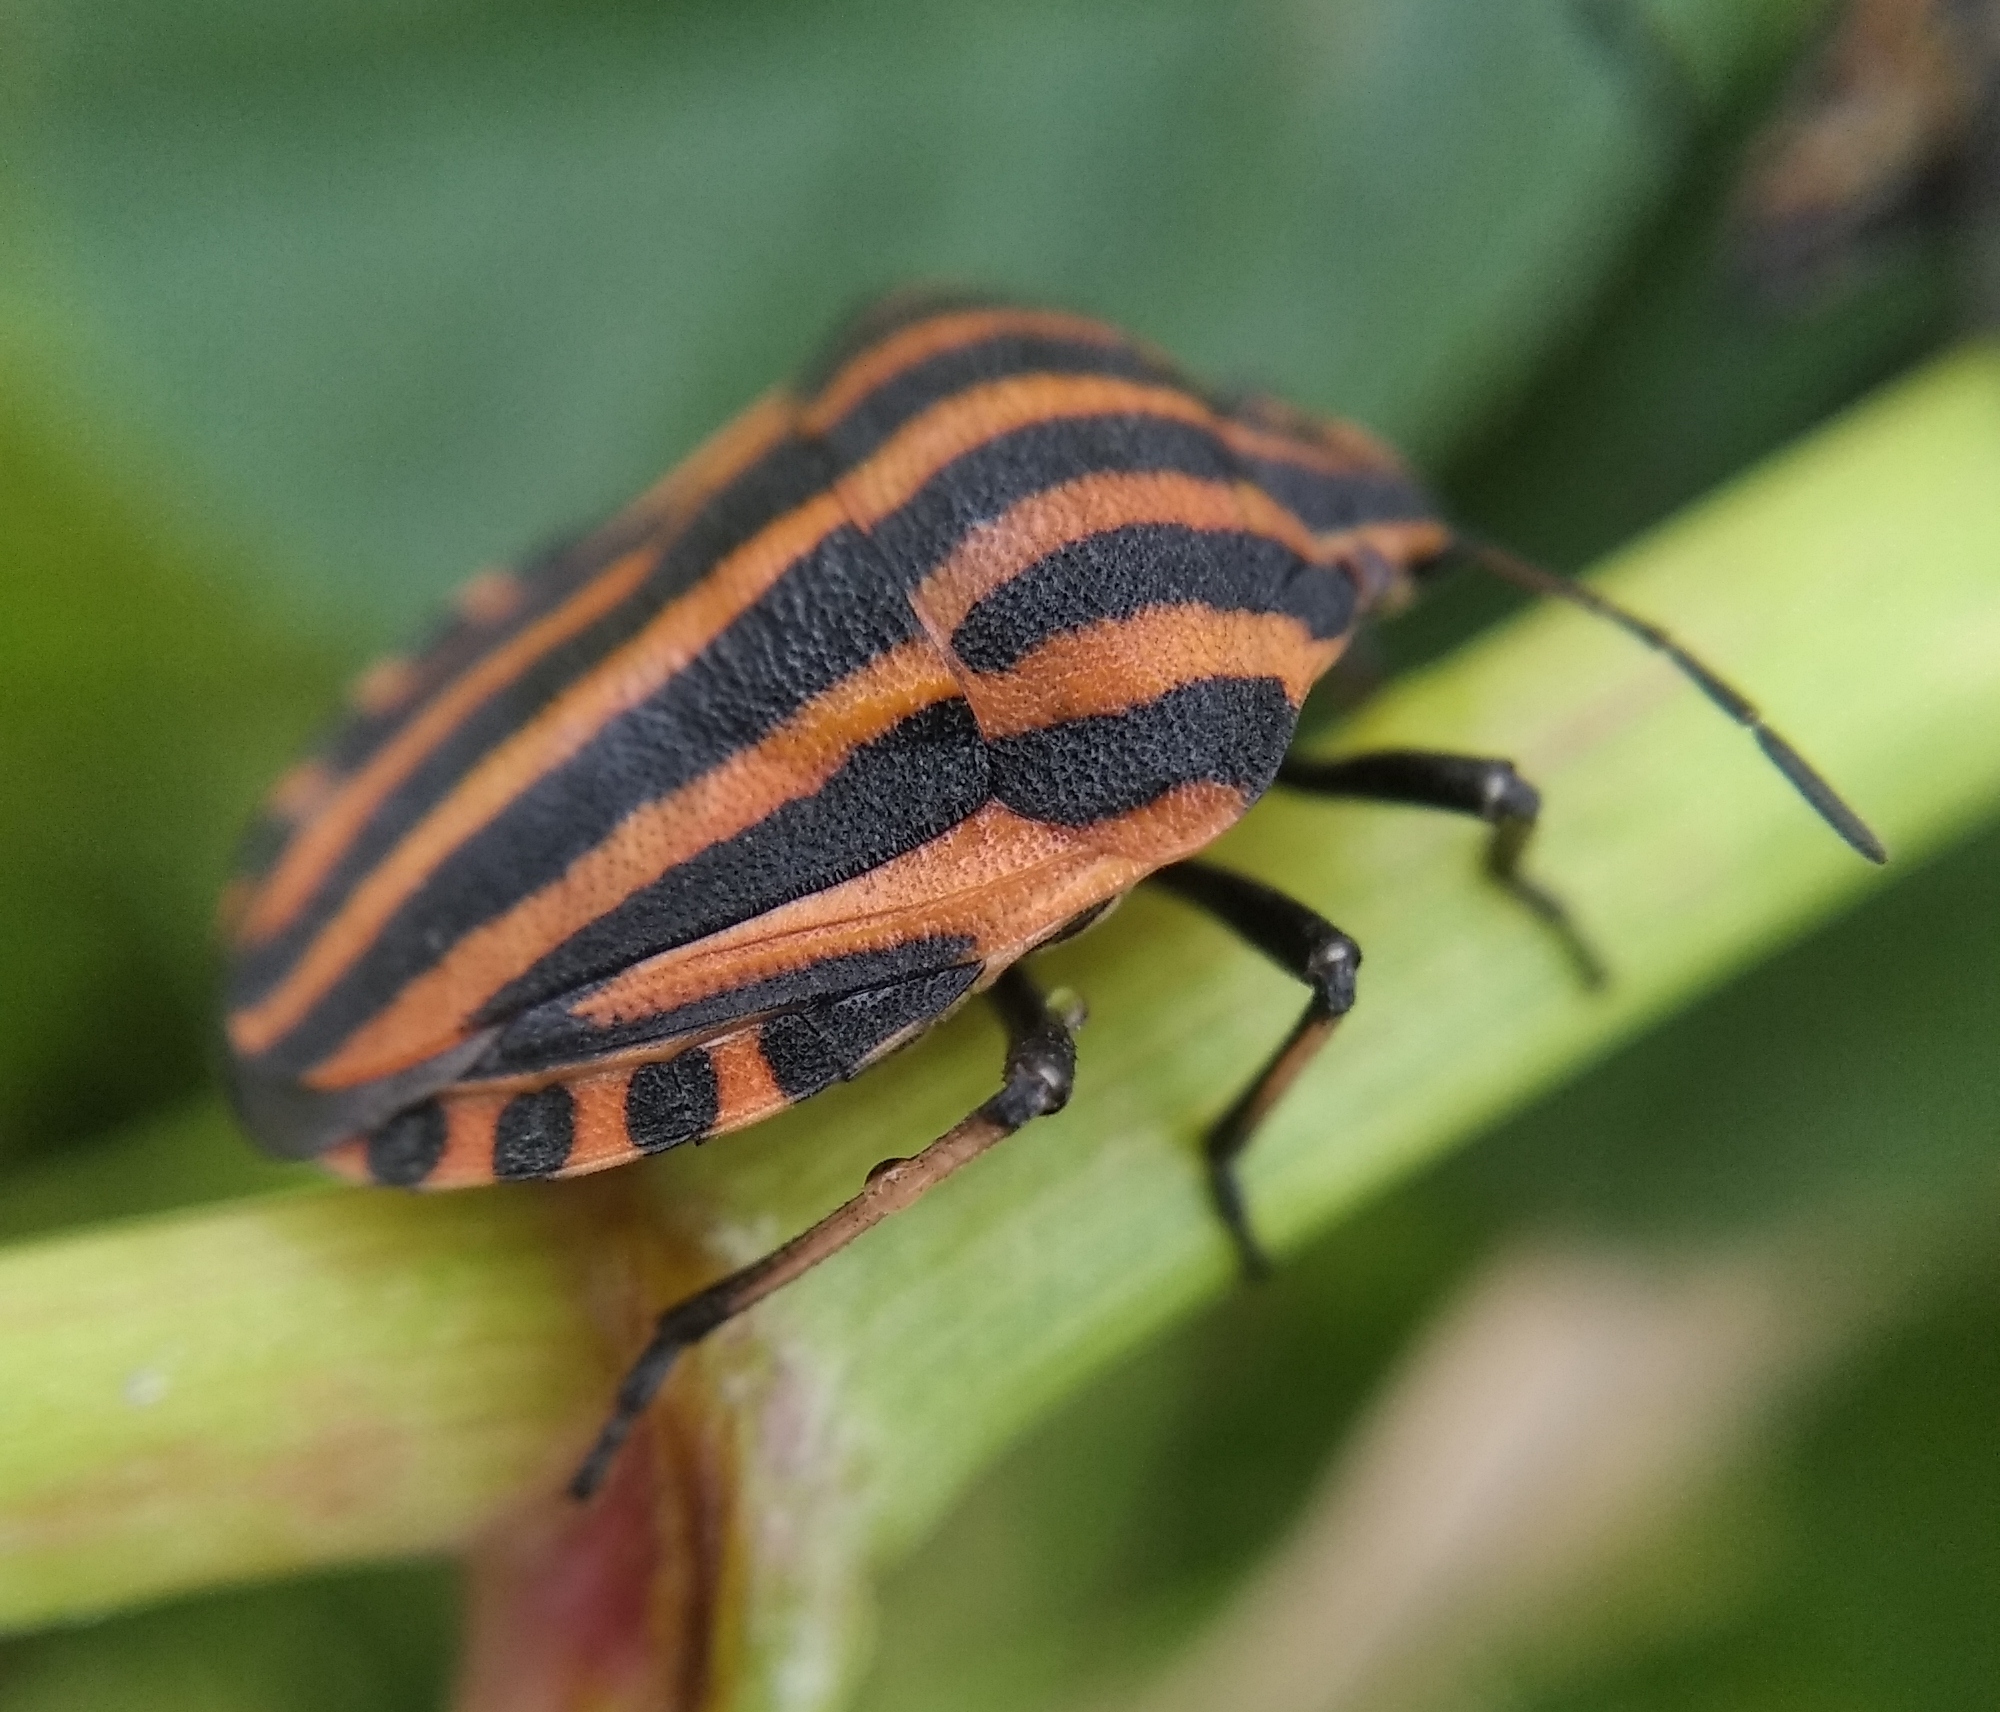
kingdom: Animalia
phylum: Arthropoda
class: Insecta
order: Hemiptera
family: Pentatomidae
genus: Graphosoma
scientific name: Graphosoma italicum
